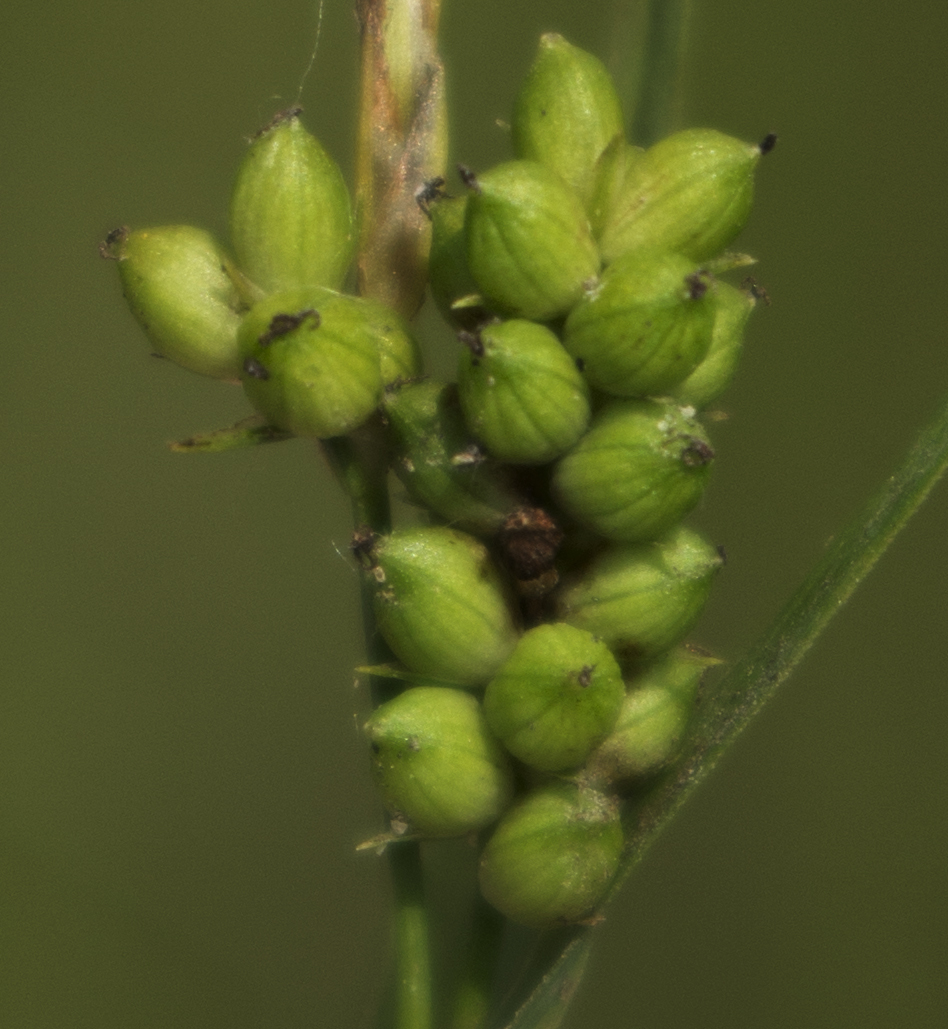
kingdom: Plantae
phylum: Tracheophyta
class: Liliopsida
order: Poales
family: Cyperaceae
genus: Carex
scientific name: Carex granularis
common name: Granular sedge
